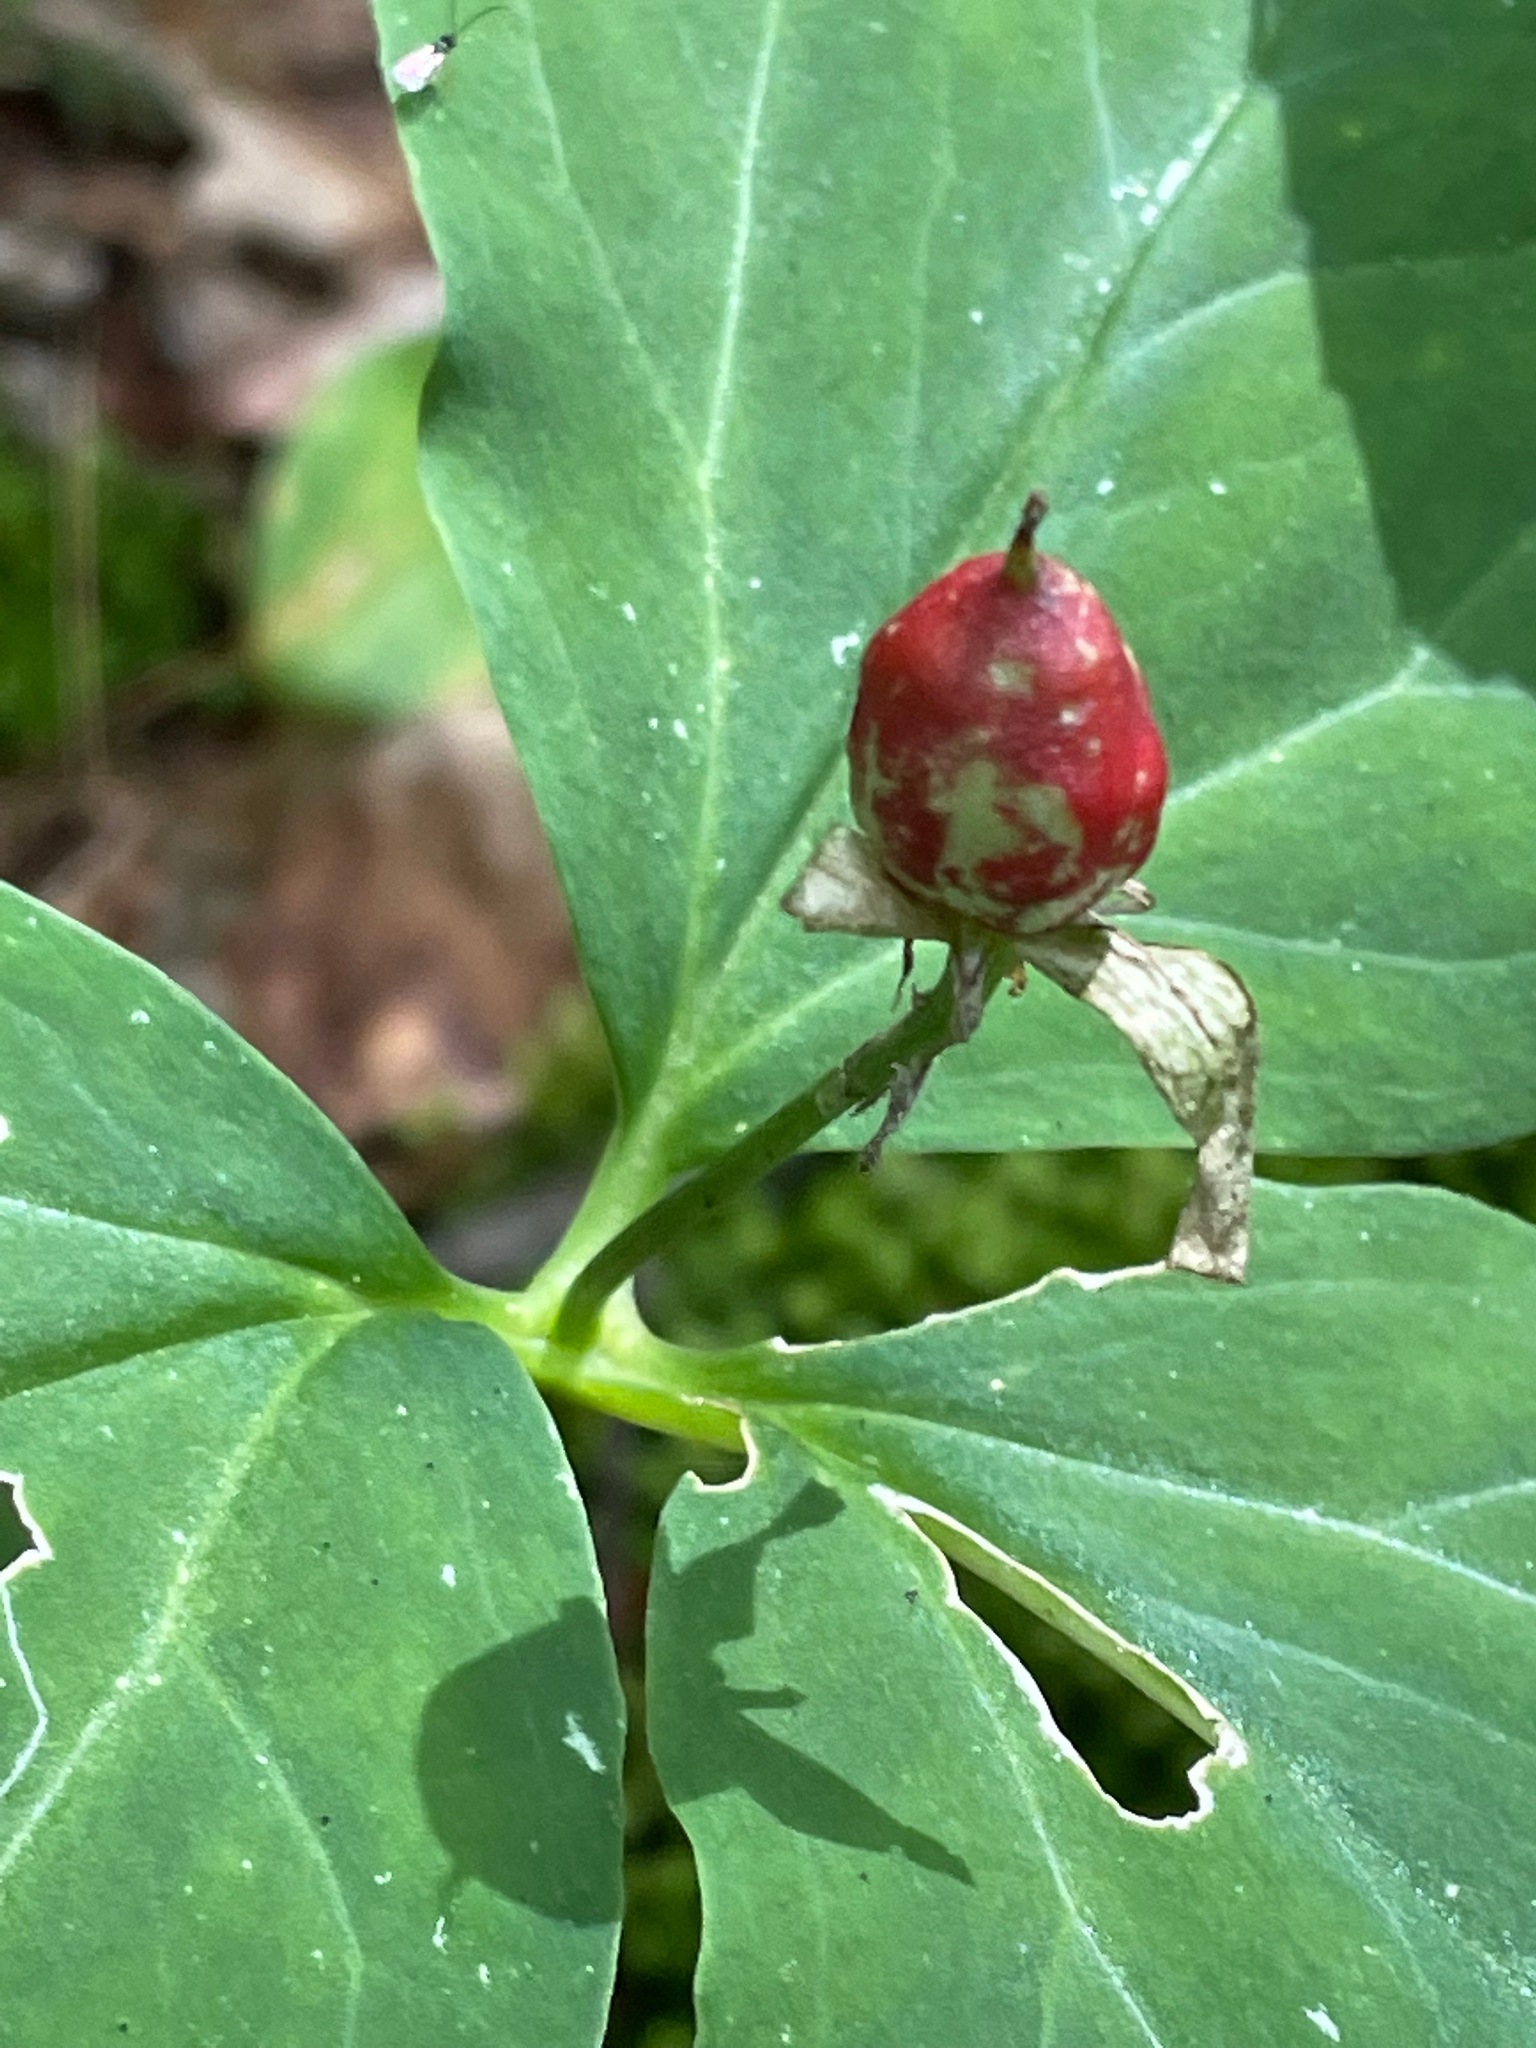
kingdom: Plantae
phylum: Tracheophyta
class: Liliopsida
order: Liliales
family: Melanthiaceae
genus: Trillium
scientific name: Trillium undulatum
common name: Paint trillium
